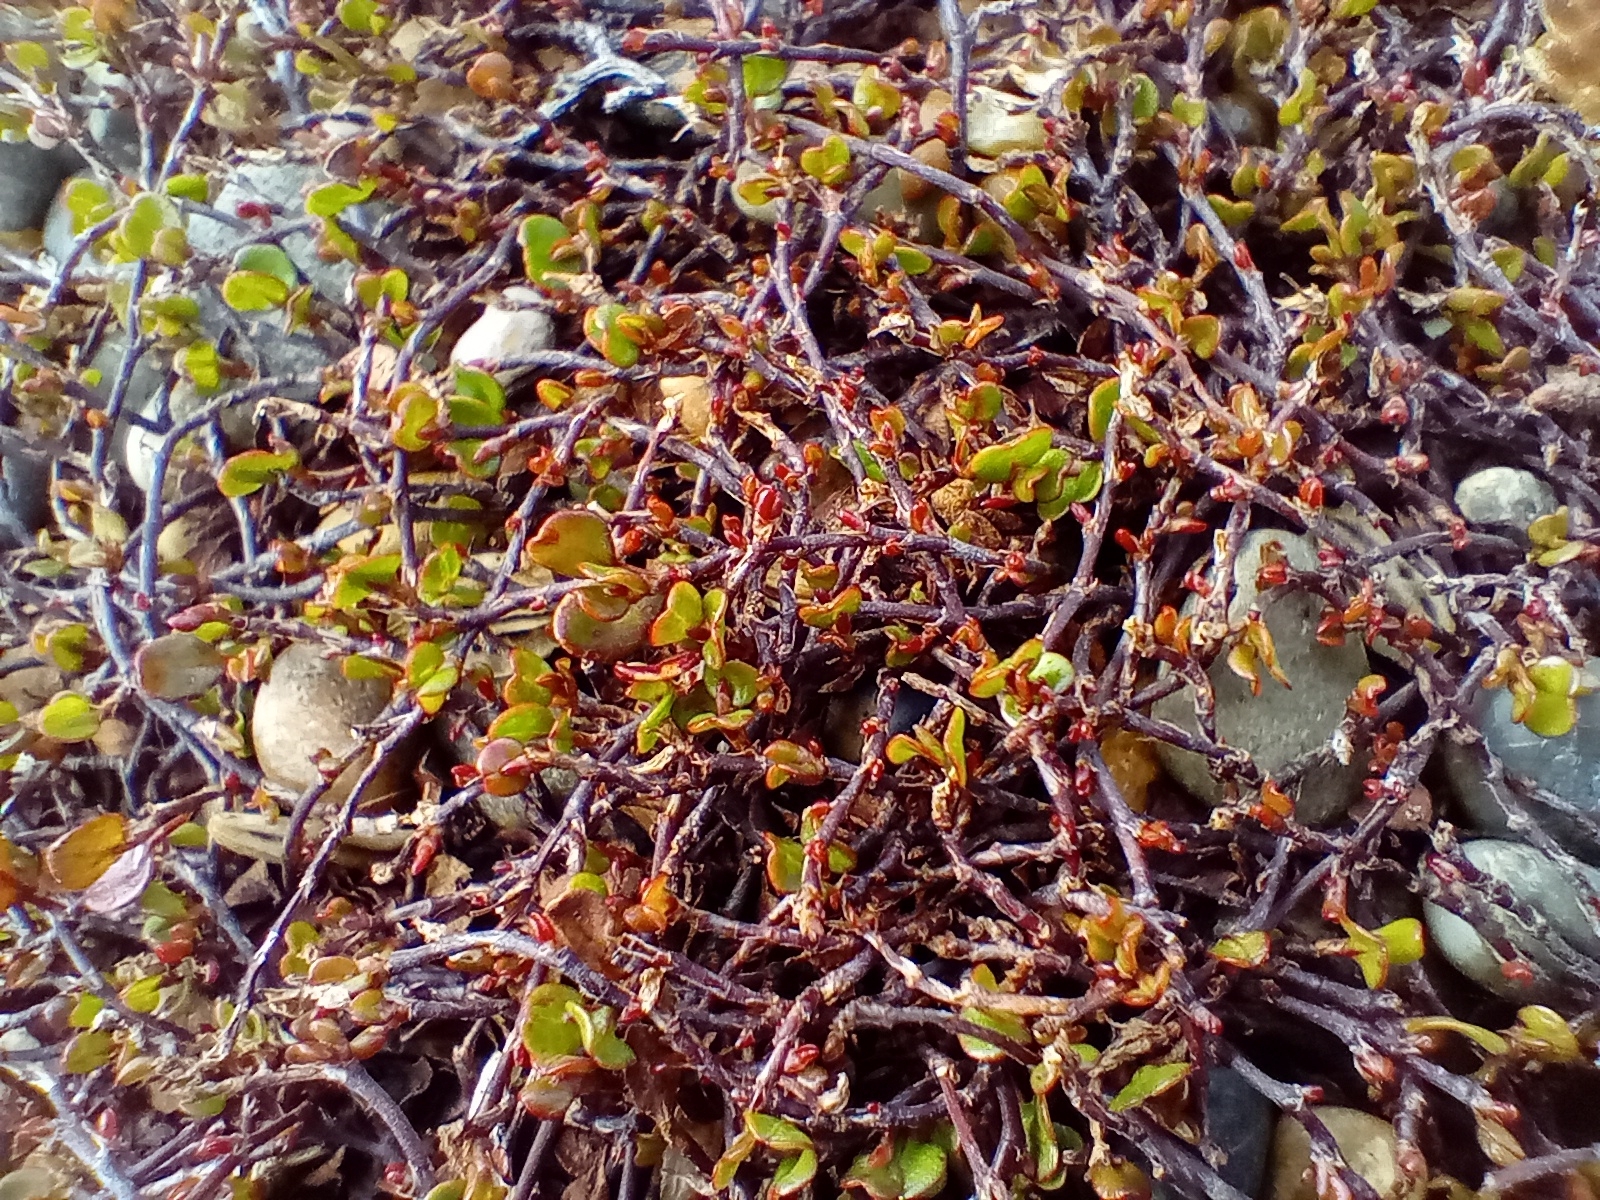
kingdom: Plantae
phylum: Tracheophyta
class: Magnoliopsida
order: Caryophyllales
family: Polygonaceae
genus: Muehlenbeckia
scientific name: Muehlenbeckia axillaris
